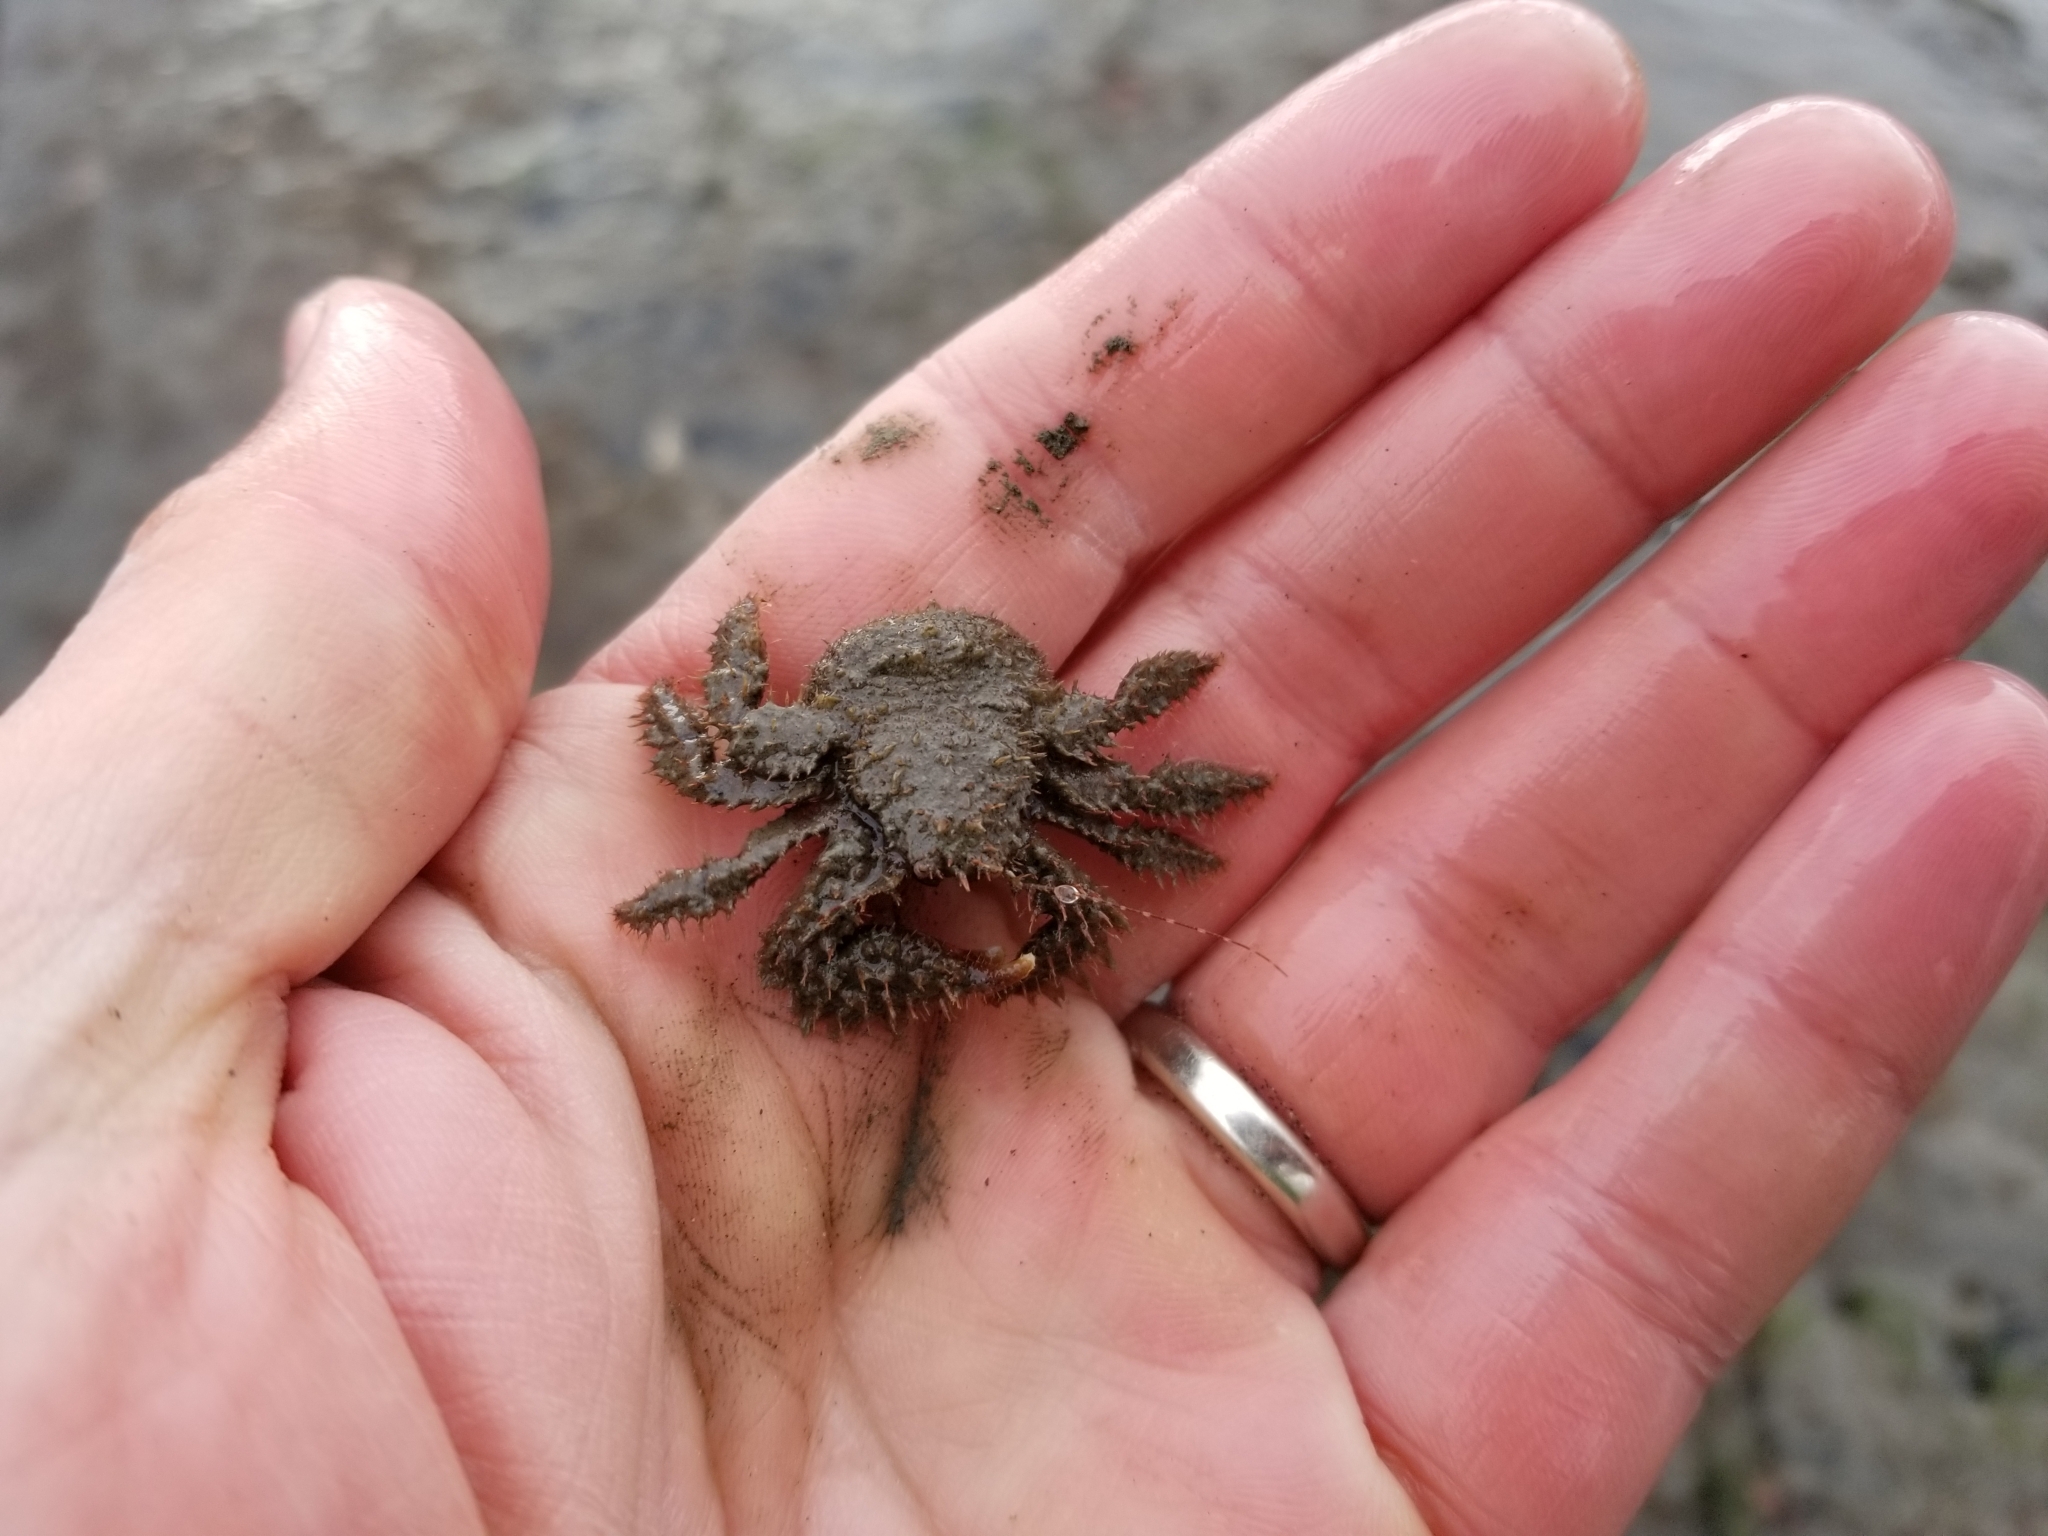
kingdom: Animalia
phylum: Arthropoda
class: Malacostraca
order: Decapoda
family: Hapalogastridae
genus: Hapalogaster
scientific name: Hapalogaster mertensii
